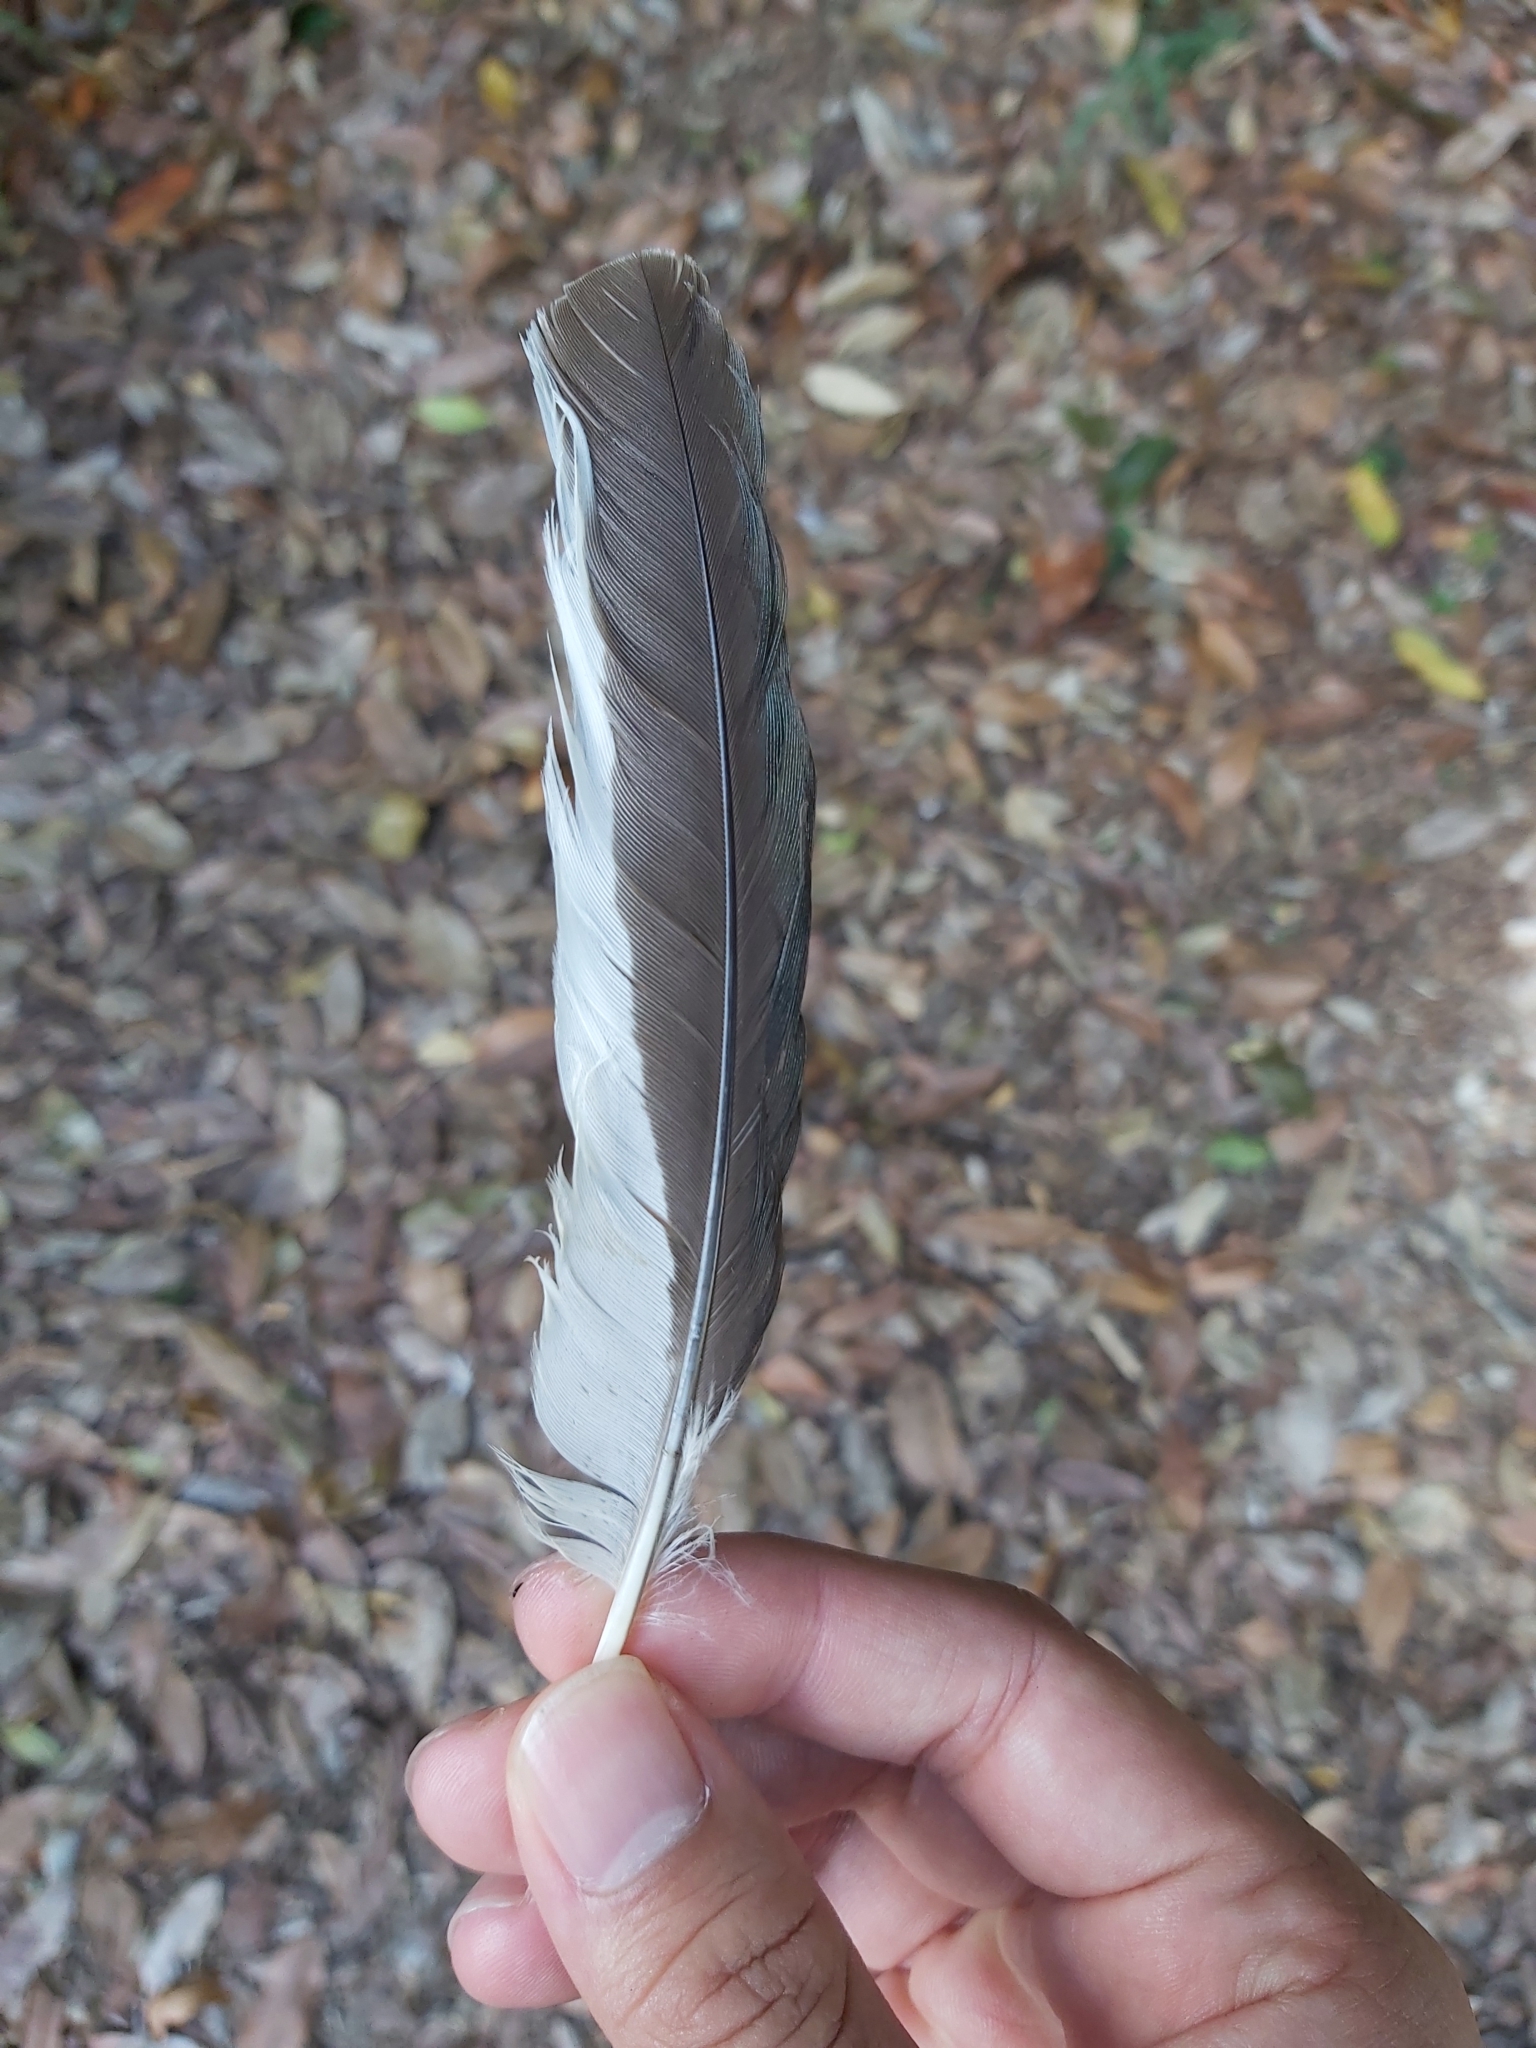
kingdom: Animalia
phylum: Chordata
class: Aves
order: Coraciiformes
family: Alcedinidae
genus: Dacelo
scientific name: Dacelo novaeguineae
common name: Laughing kookaburra
